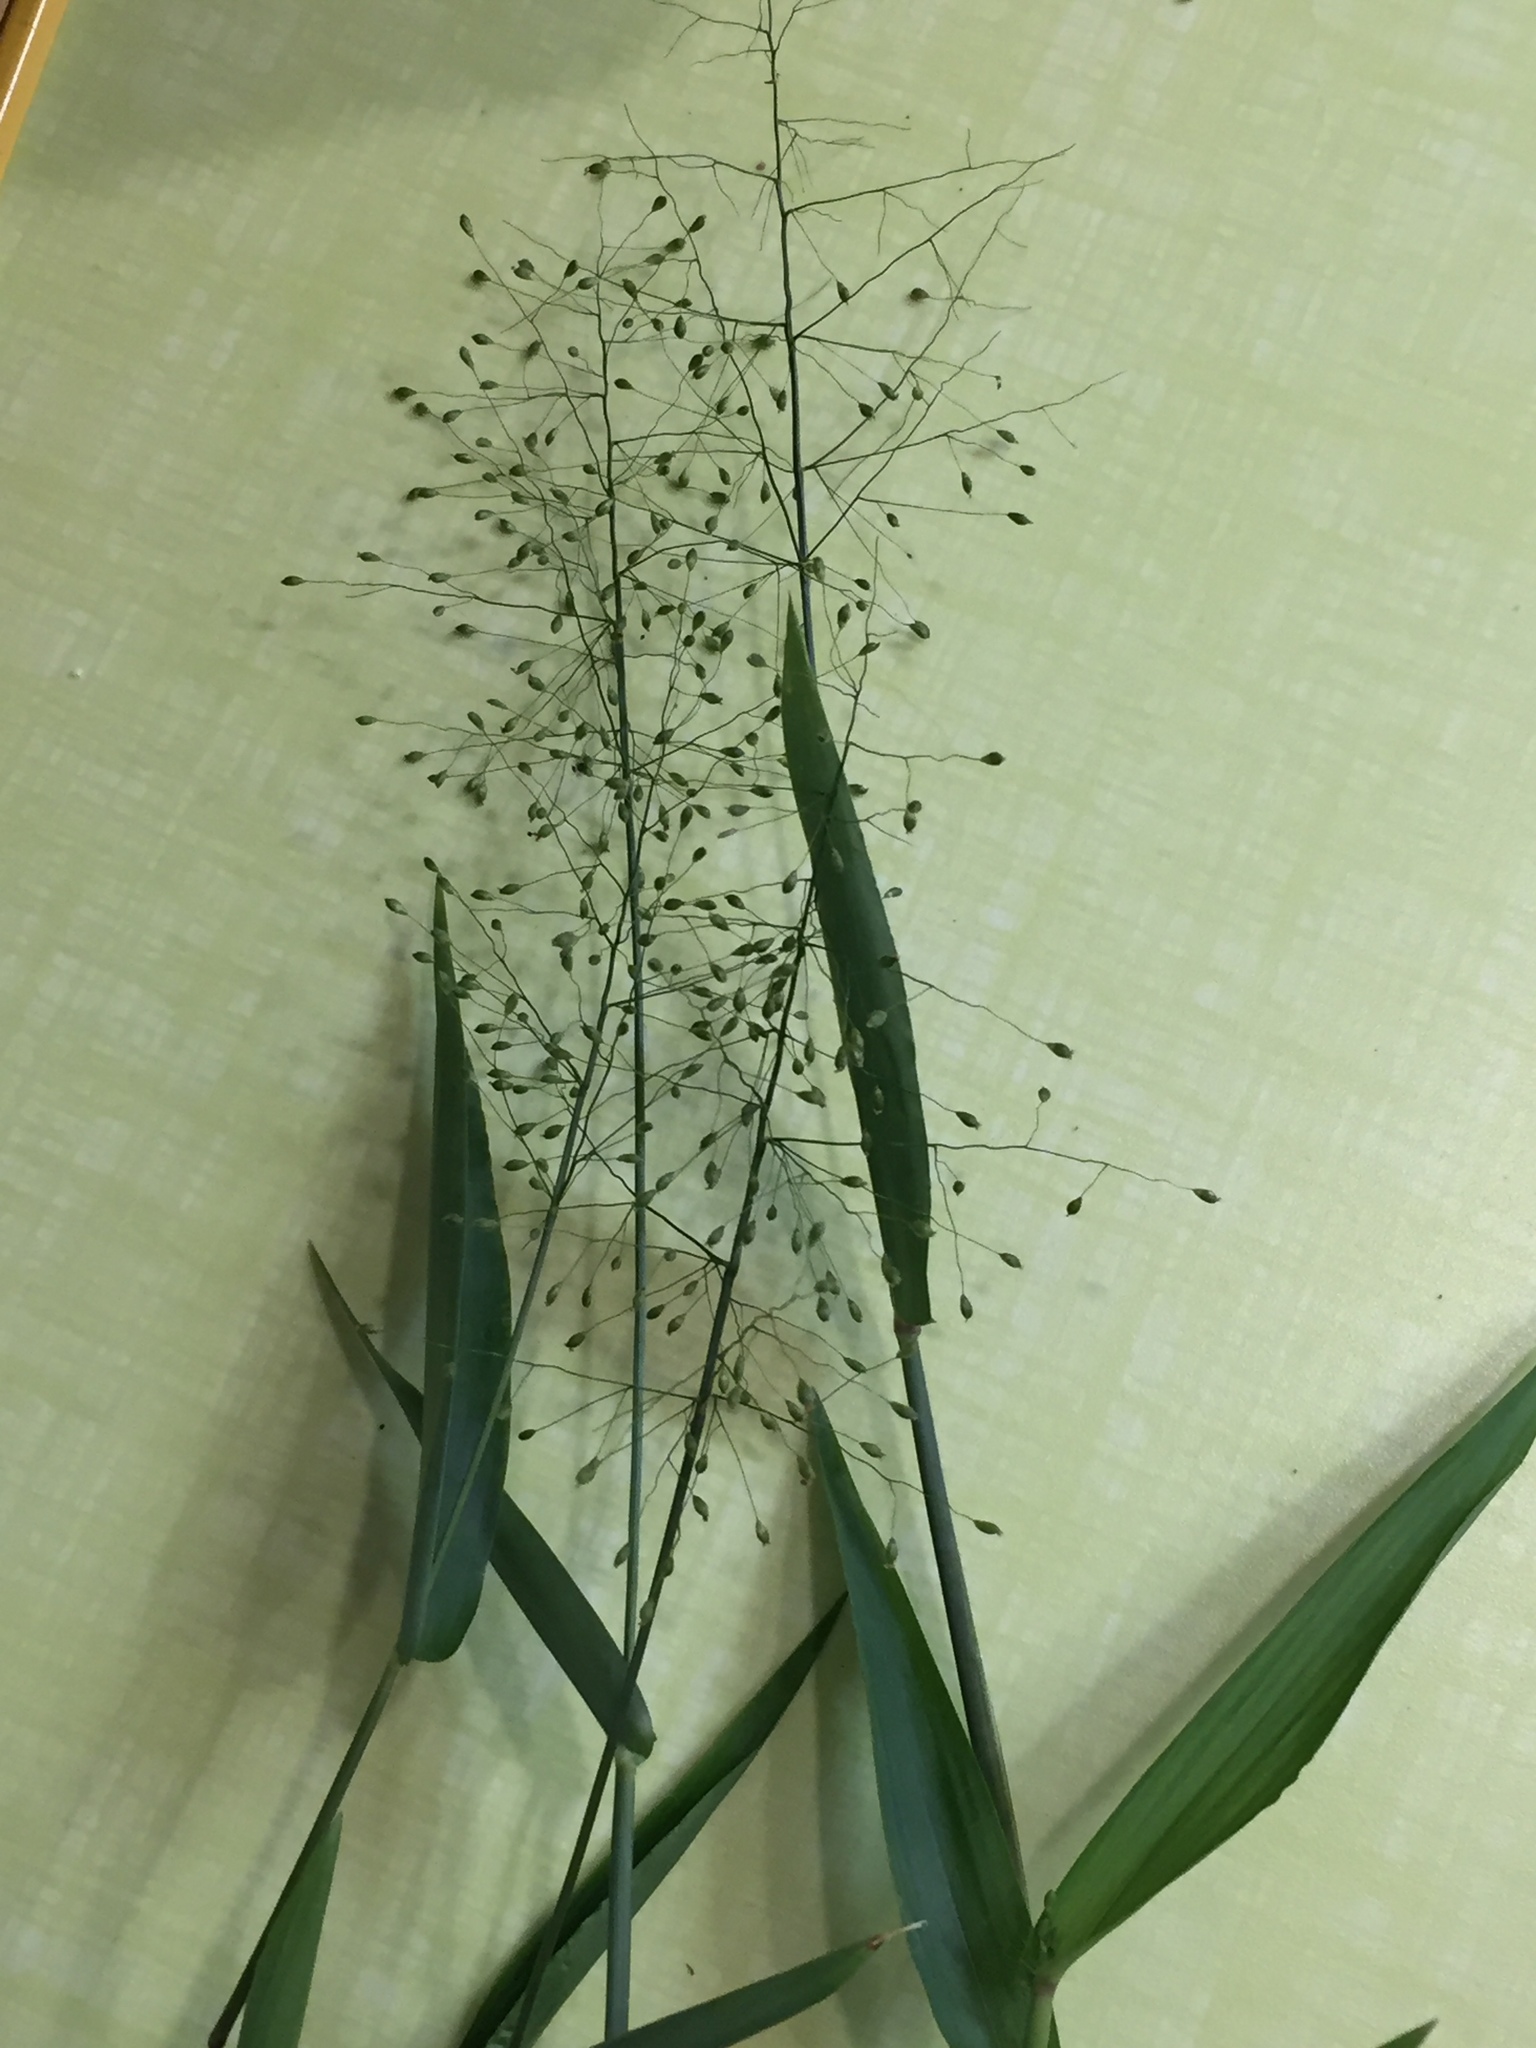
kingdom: Plantae
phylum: Tracheophyta
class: Liliopsida
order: Poales
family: Poaceae
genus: Dichanthelium
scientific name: Dichanthelium commutatum
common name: Variable witchgrass
